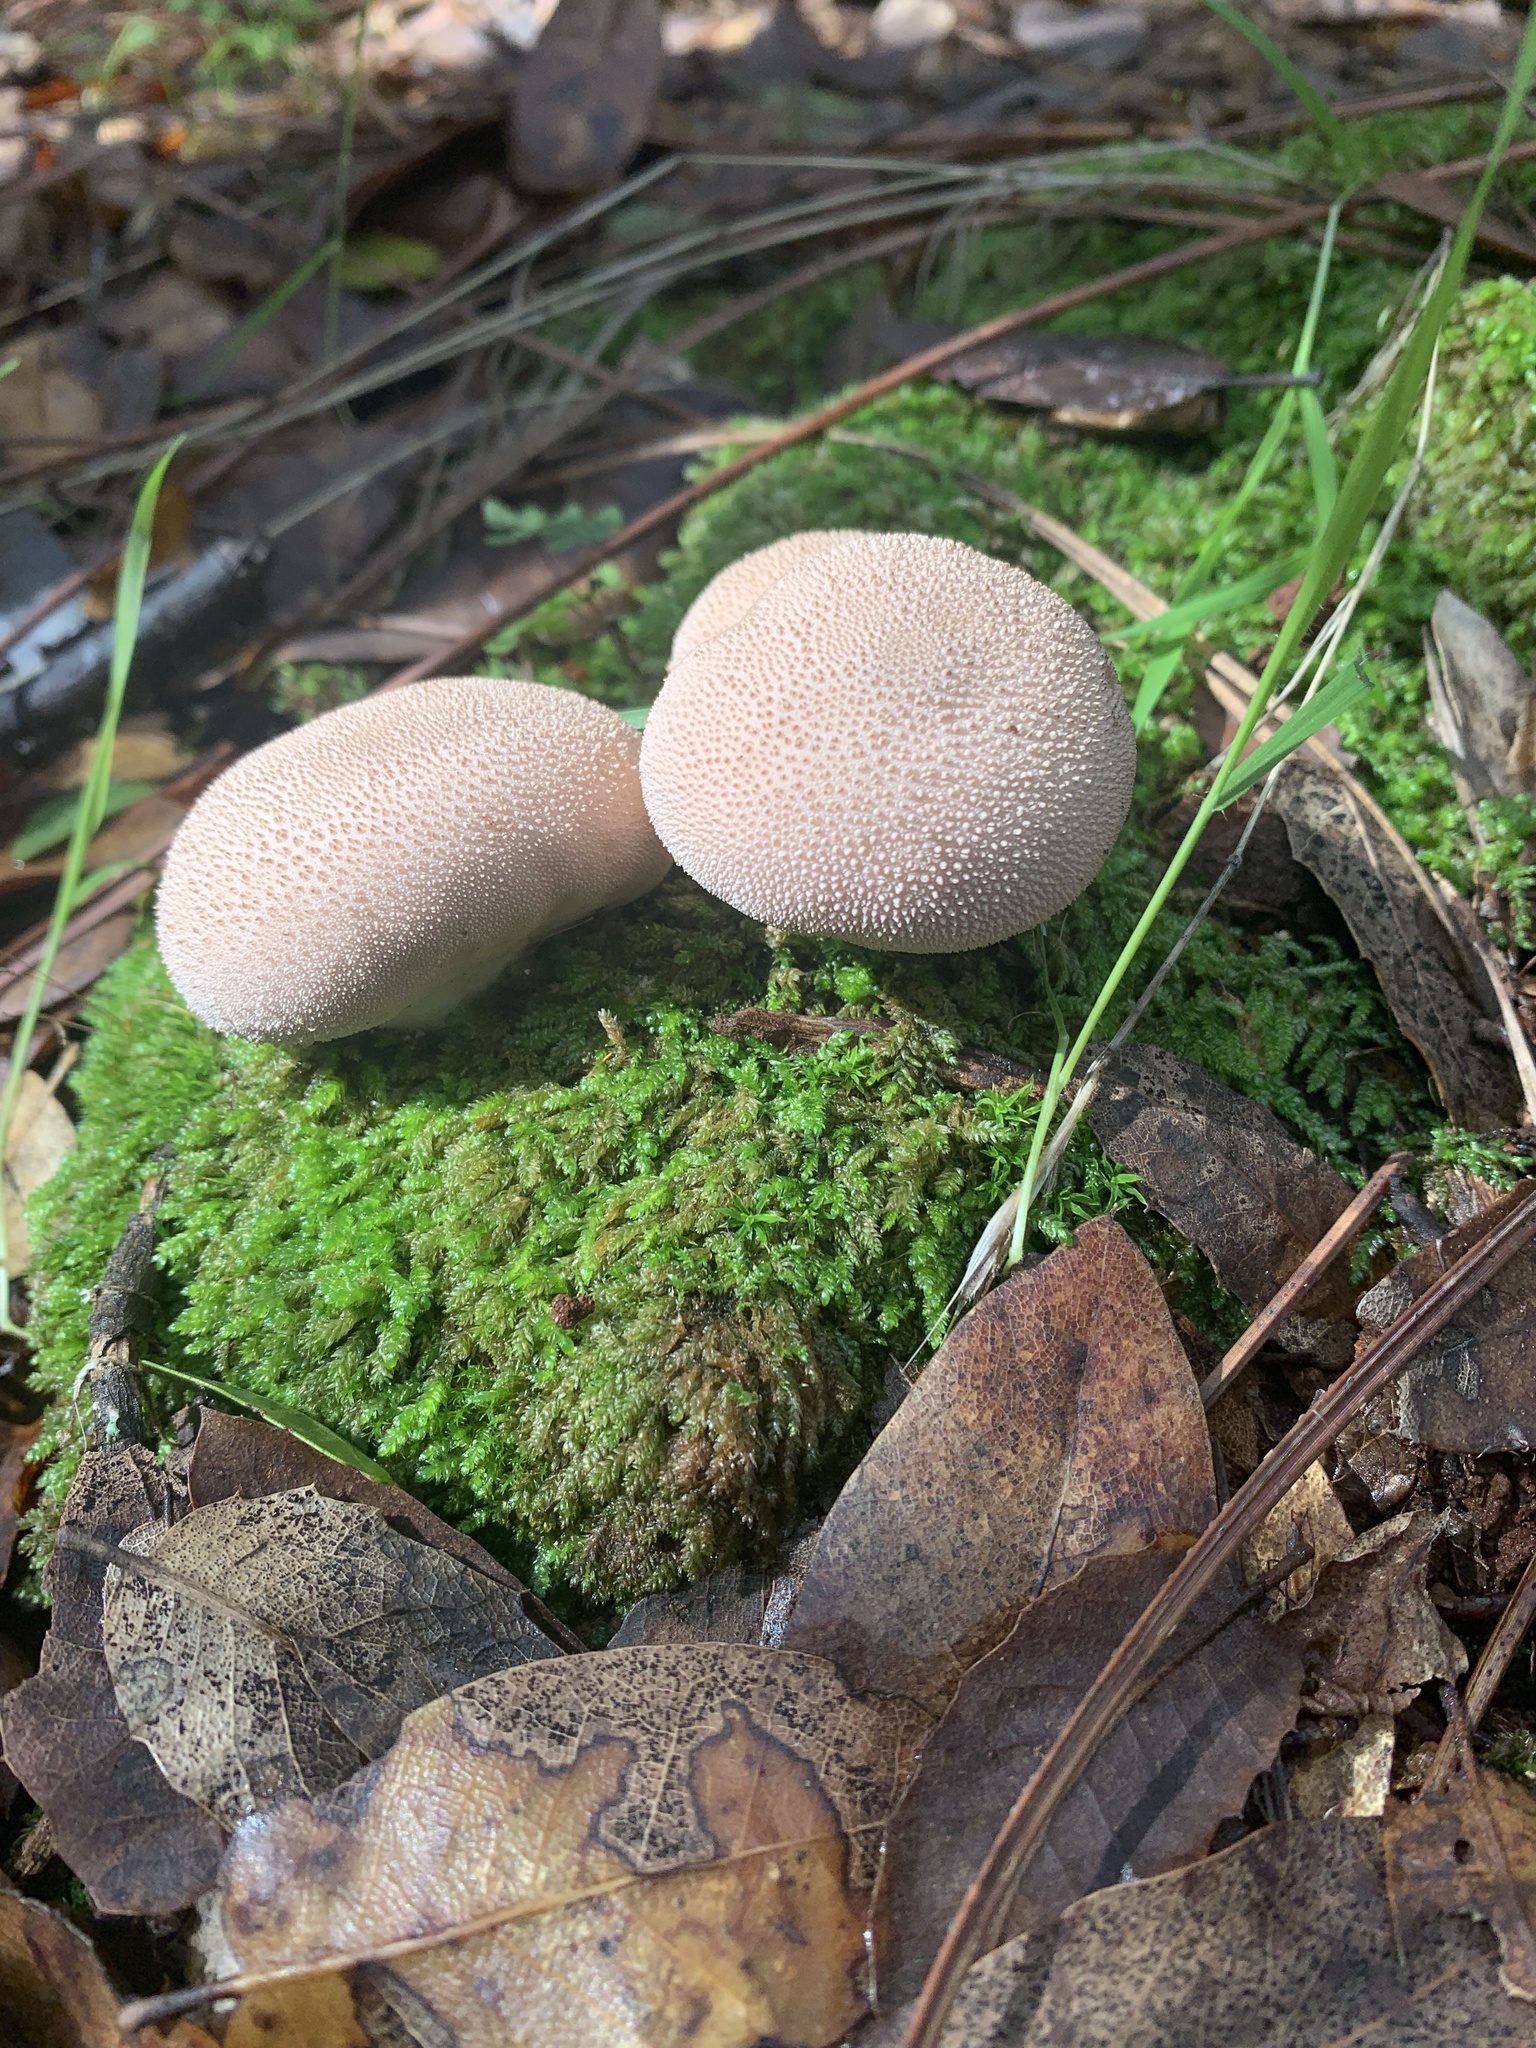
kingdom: Fungi
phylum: Basidiomycota
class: Agaricomycetes
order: Agaricales
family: Lycoperdaceae
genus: Lycoperdon
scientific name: Lycoperdon perlatum
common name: Common puffball
